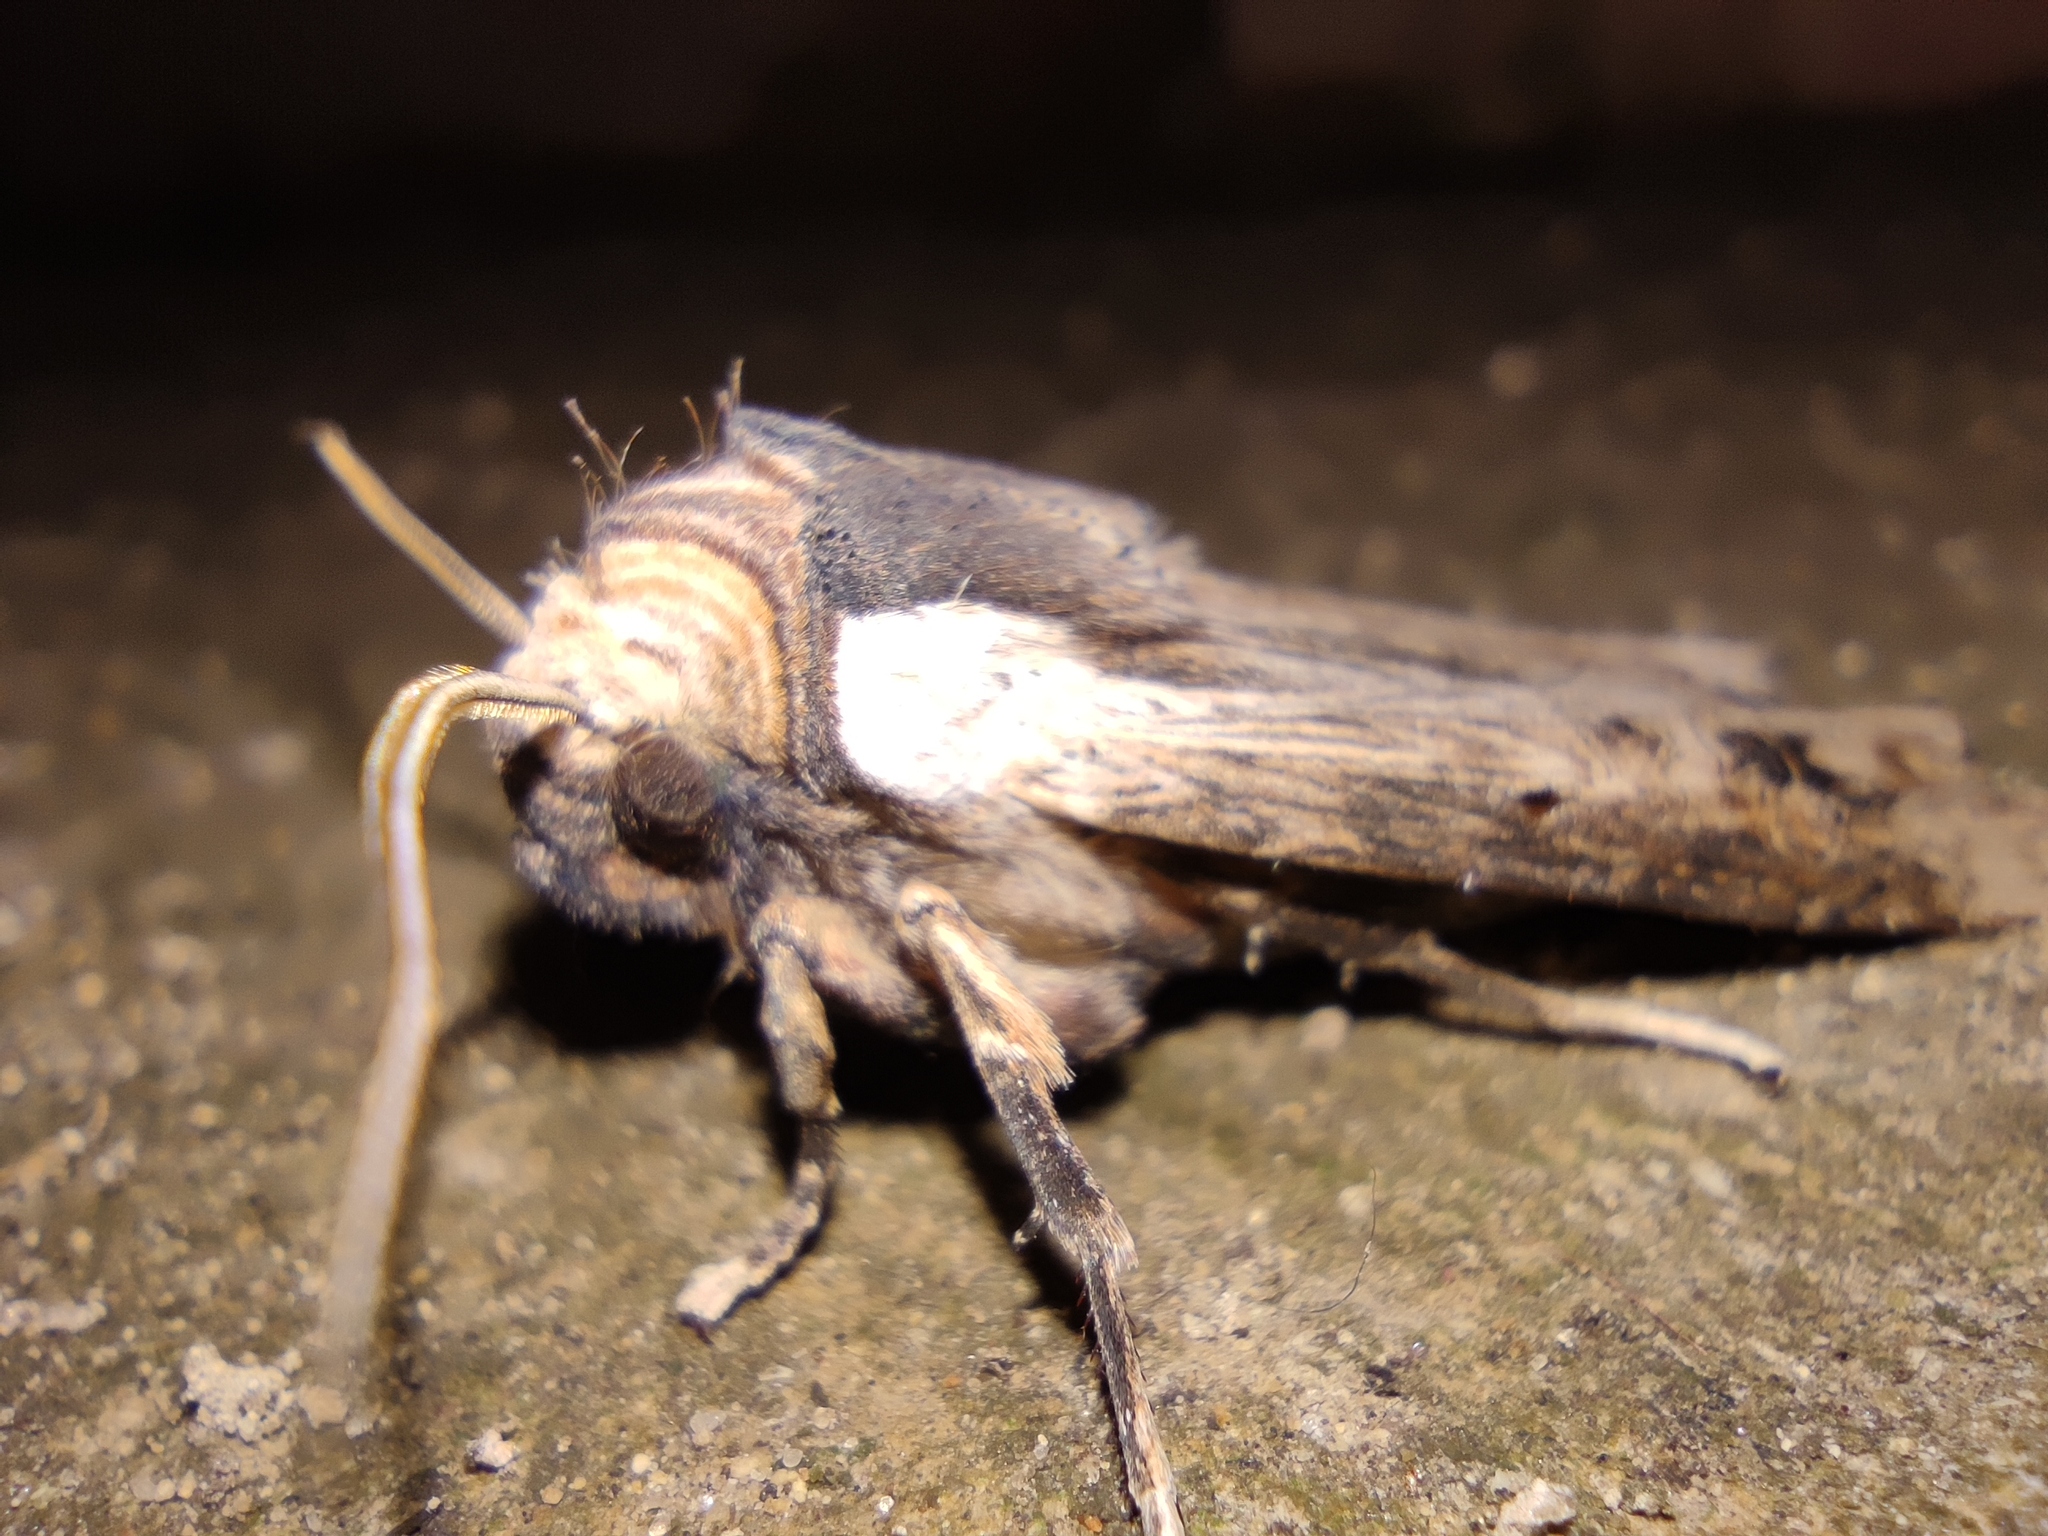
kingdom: Animalia
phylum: Arthropoda
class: Insecta
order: Lepidoptera
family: Noctuidae
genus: Xylena
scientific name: Xylena exsoleta
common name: Sword-grass
